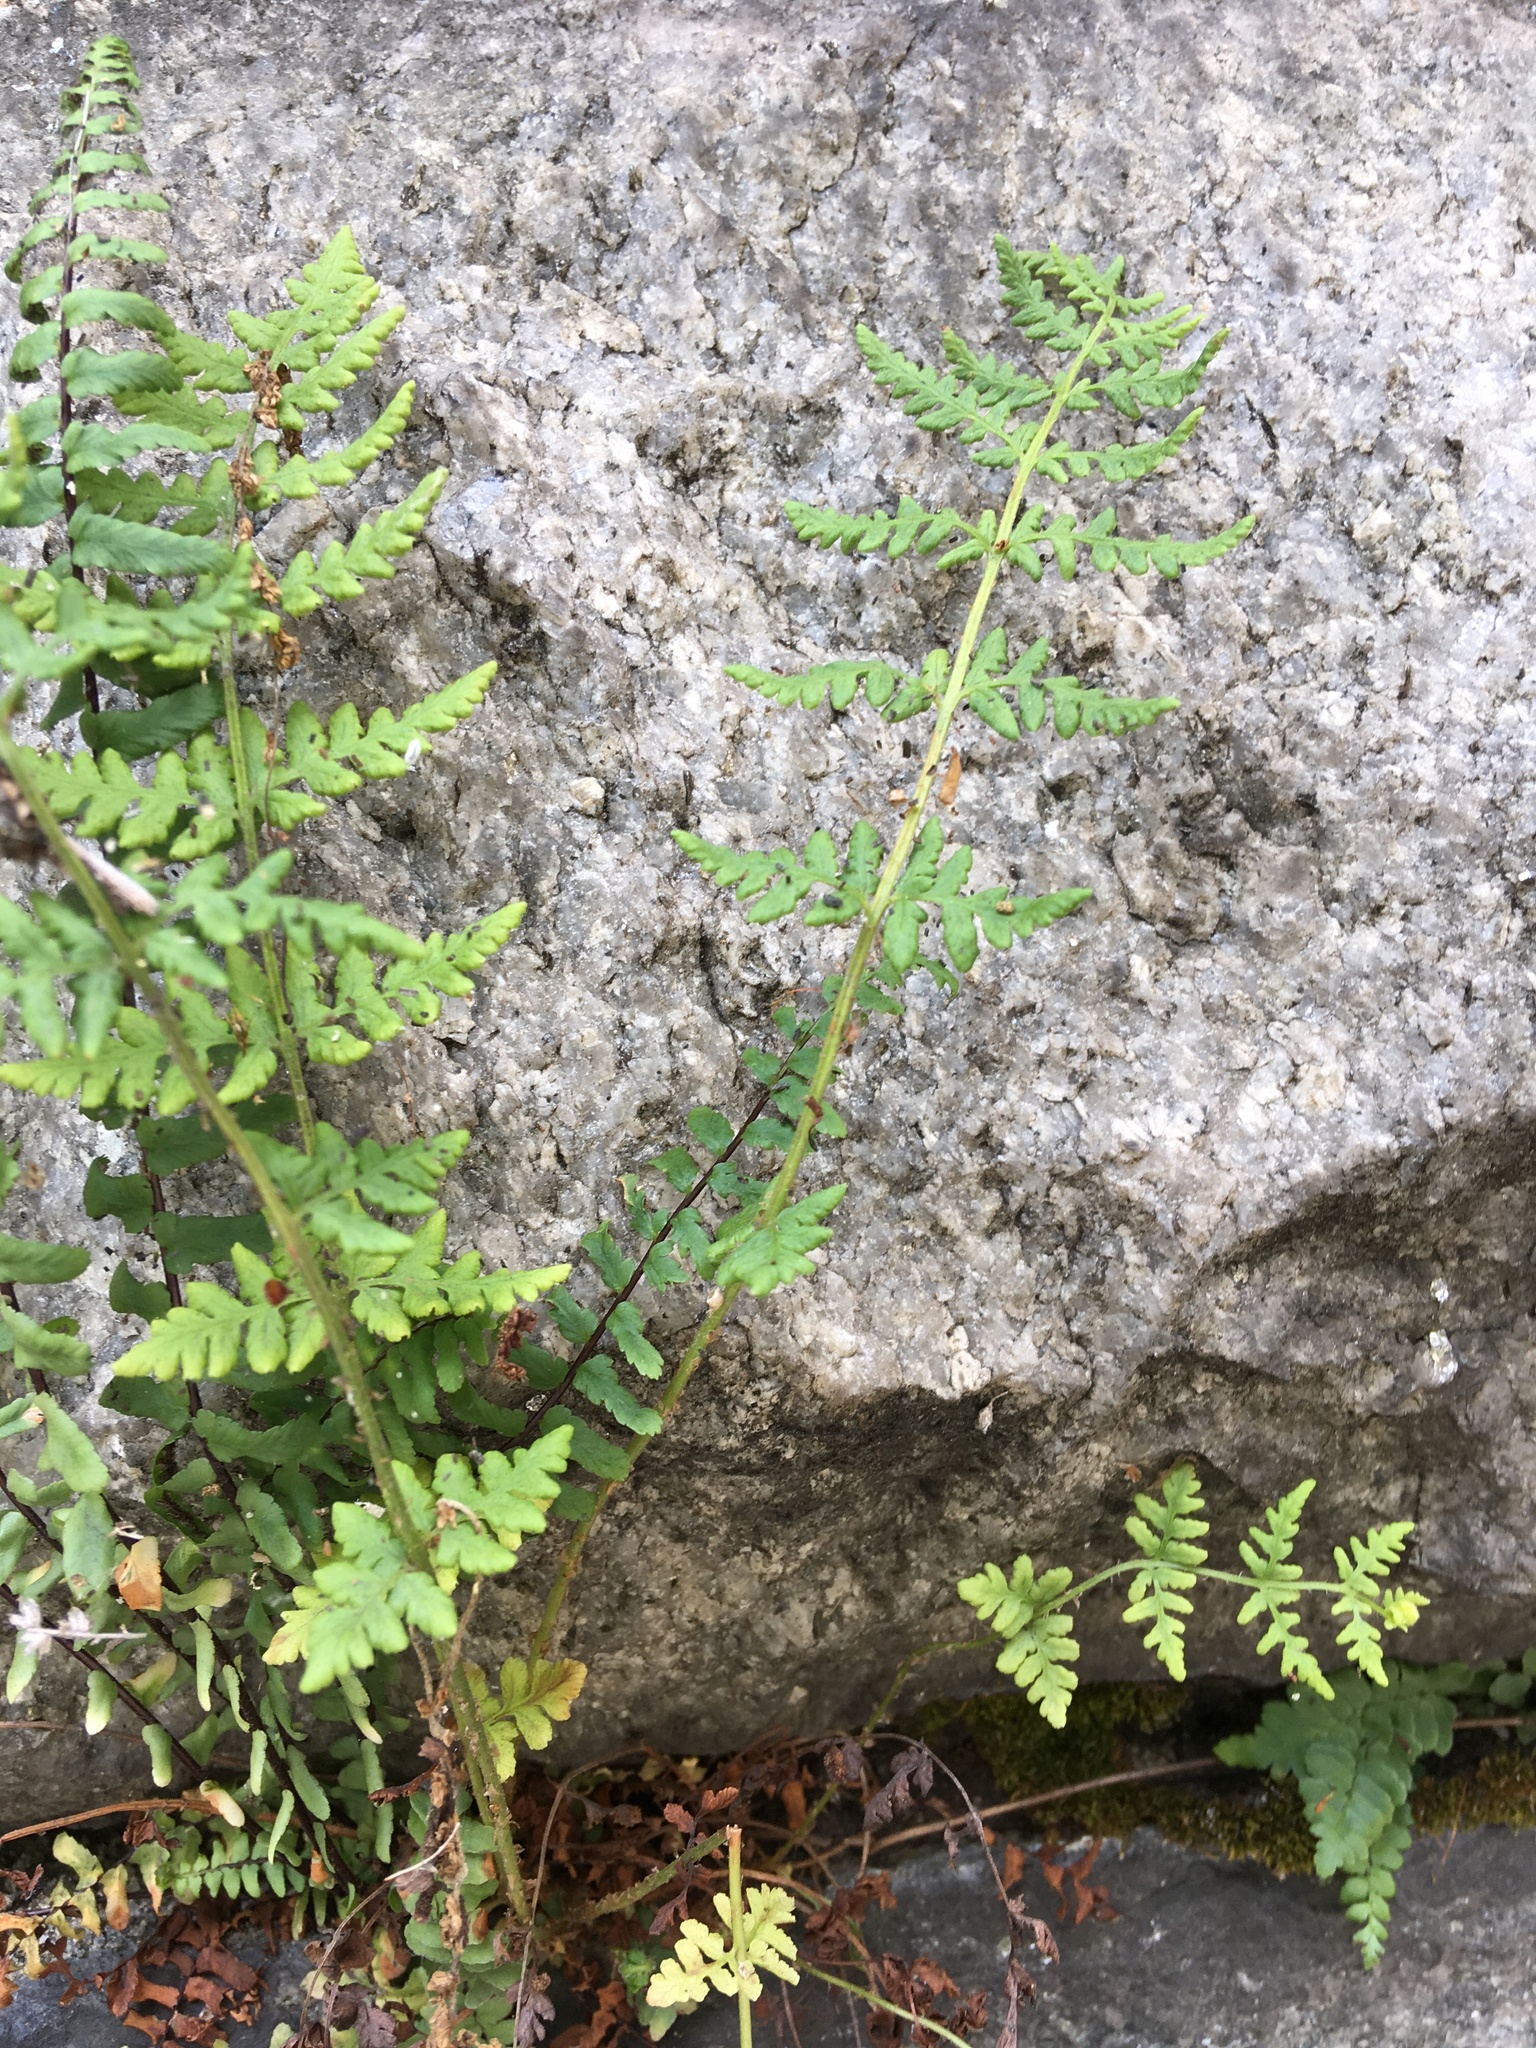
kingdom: Plantae
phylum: Tracheophyta
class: Polypodiopsida
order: Polypodiales
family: Woodsiaceae
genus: Physematium
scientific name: Physematium obtusum
